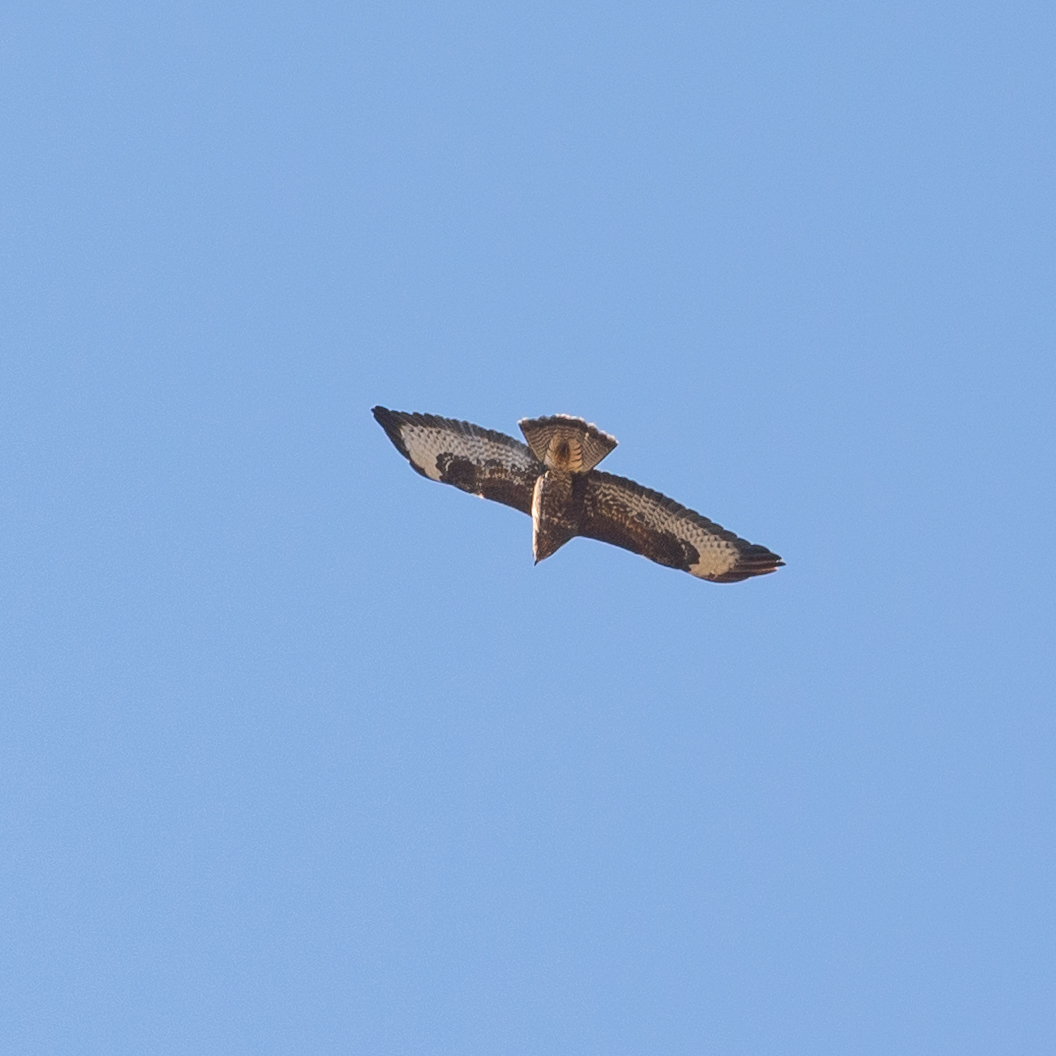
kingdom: Animalia
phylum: Chordata
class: Aves
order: Accipitriformes
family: Accipitridae
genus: Buteo
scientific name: Buteo buteo
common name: Common buzzard
